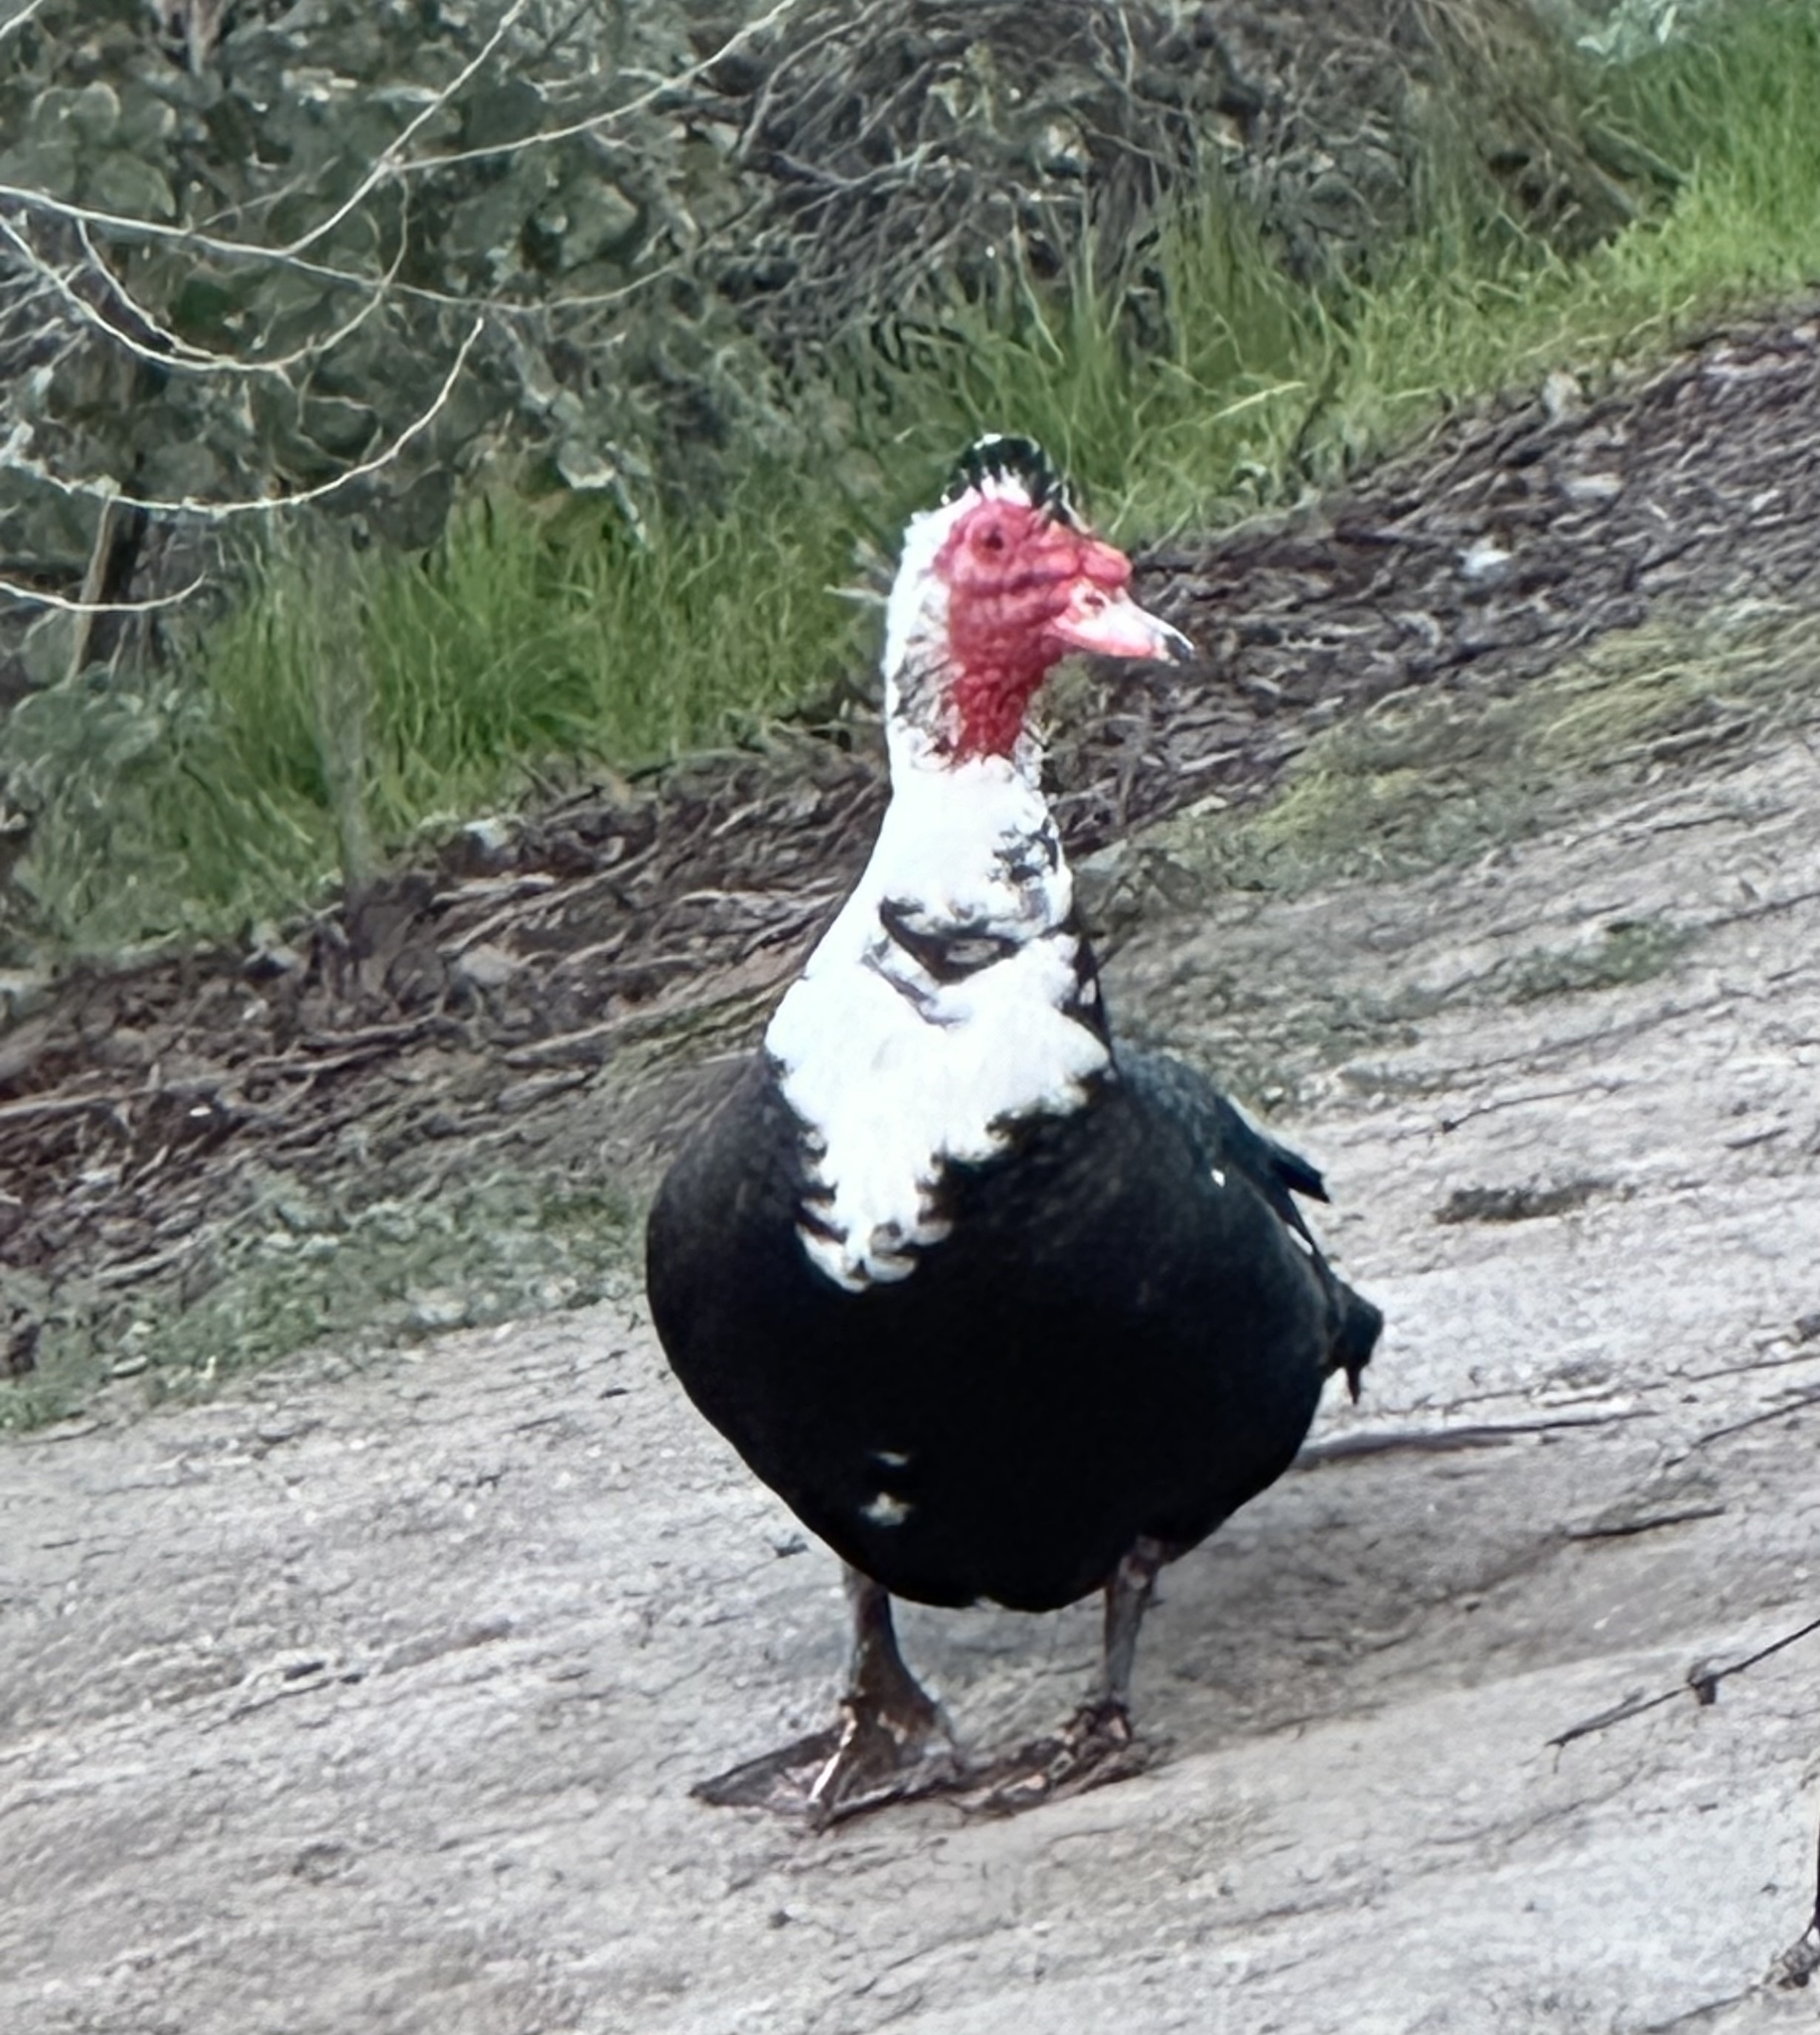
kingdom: Animalia
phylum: Chordata
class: Aves
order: Anseriformes
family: Anatidae
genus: Cairina
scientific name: Cairina moschata
